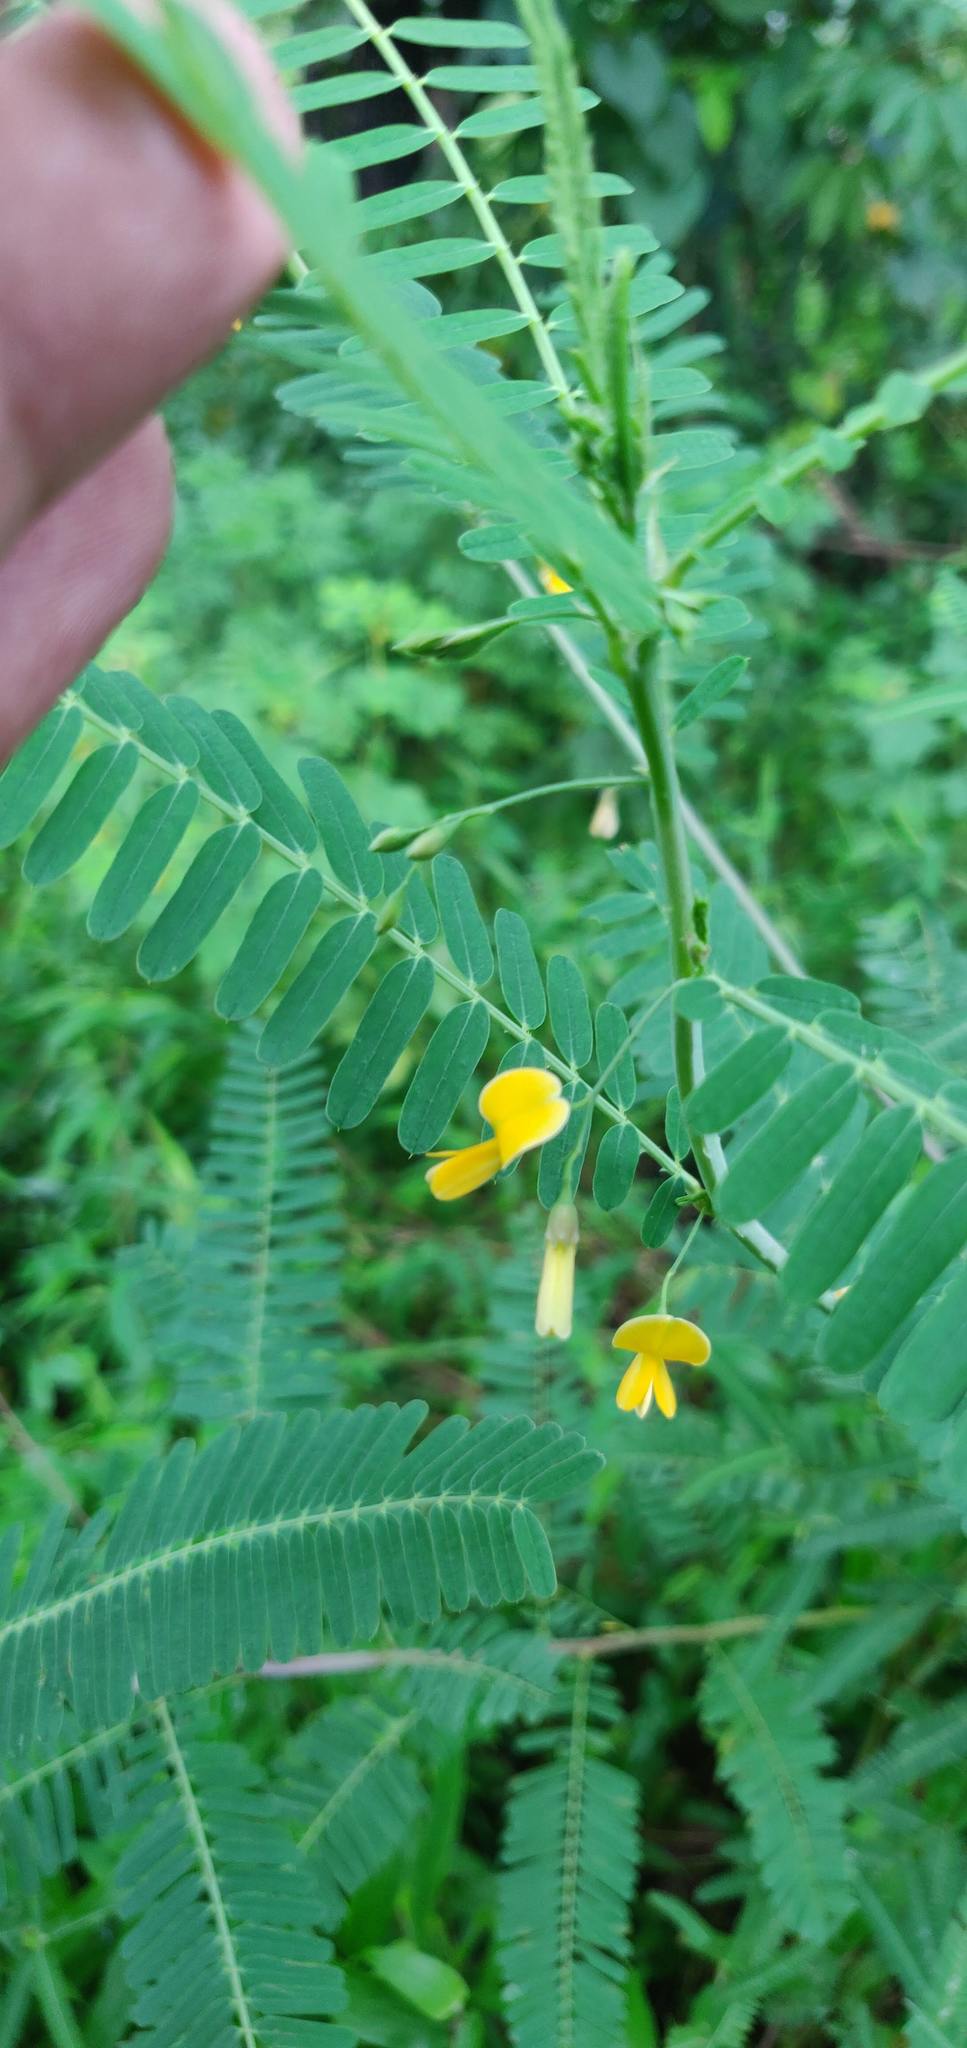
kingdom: Plantae
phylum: Tracheophyta
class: Magnoliopsida
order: Fabales
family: Fabaceae
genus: Sesbania
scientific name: Sesbania bispinosa
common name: Sesbania pea
